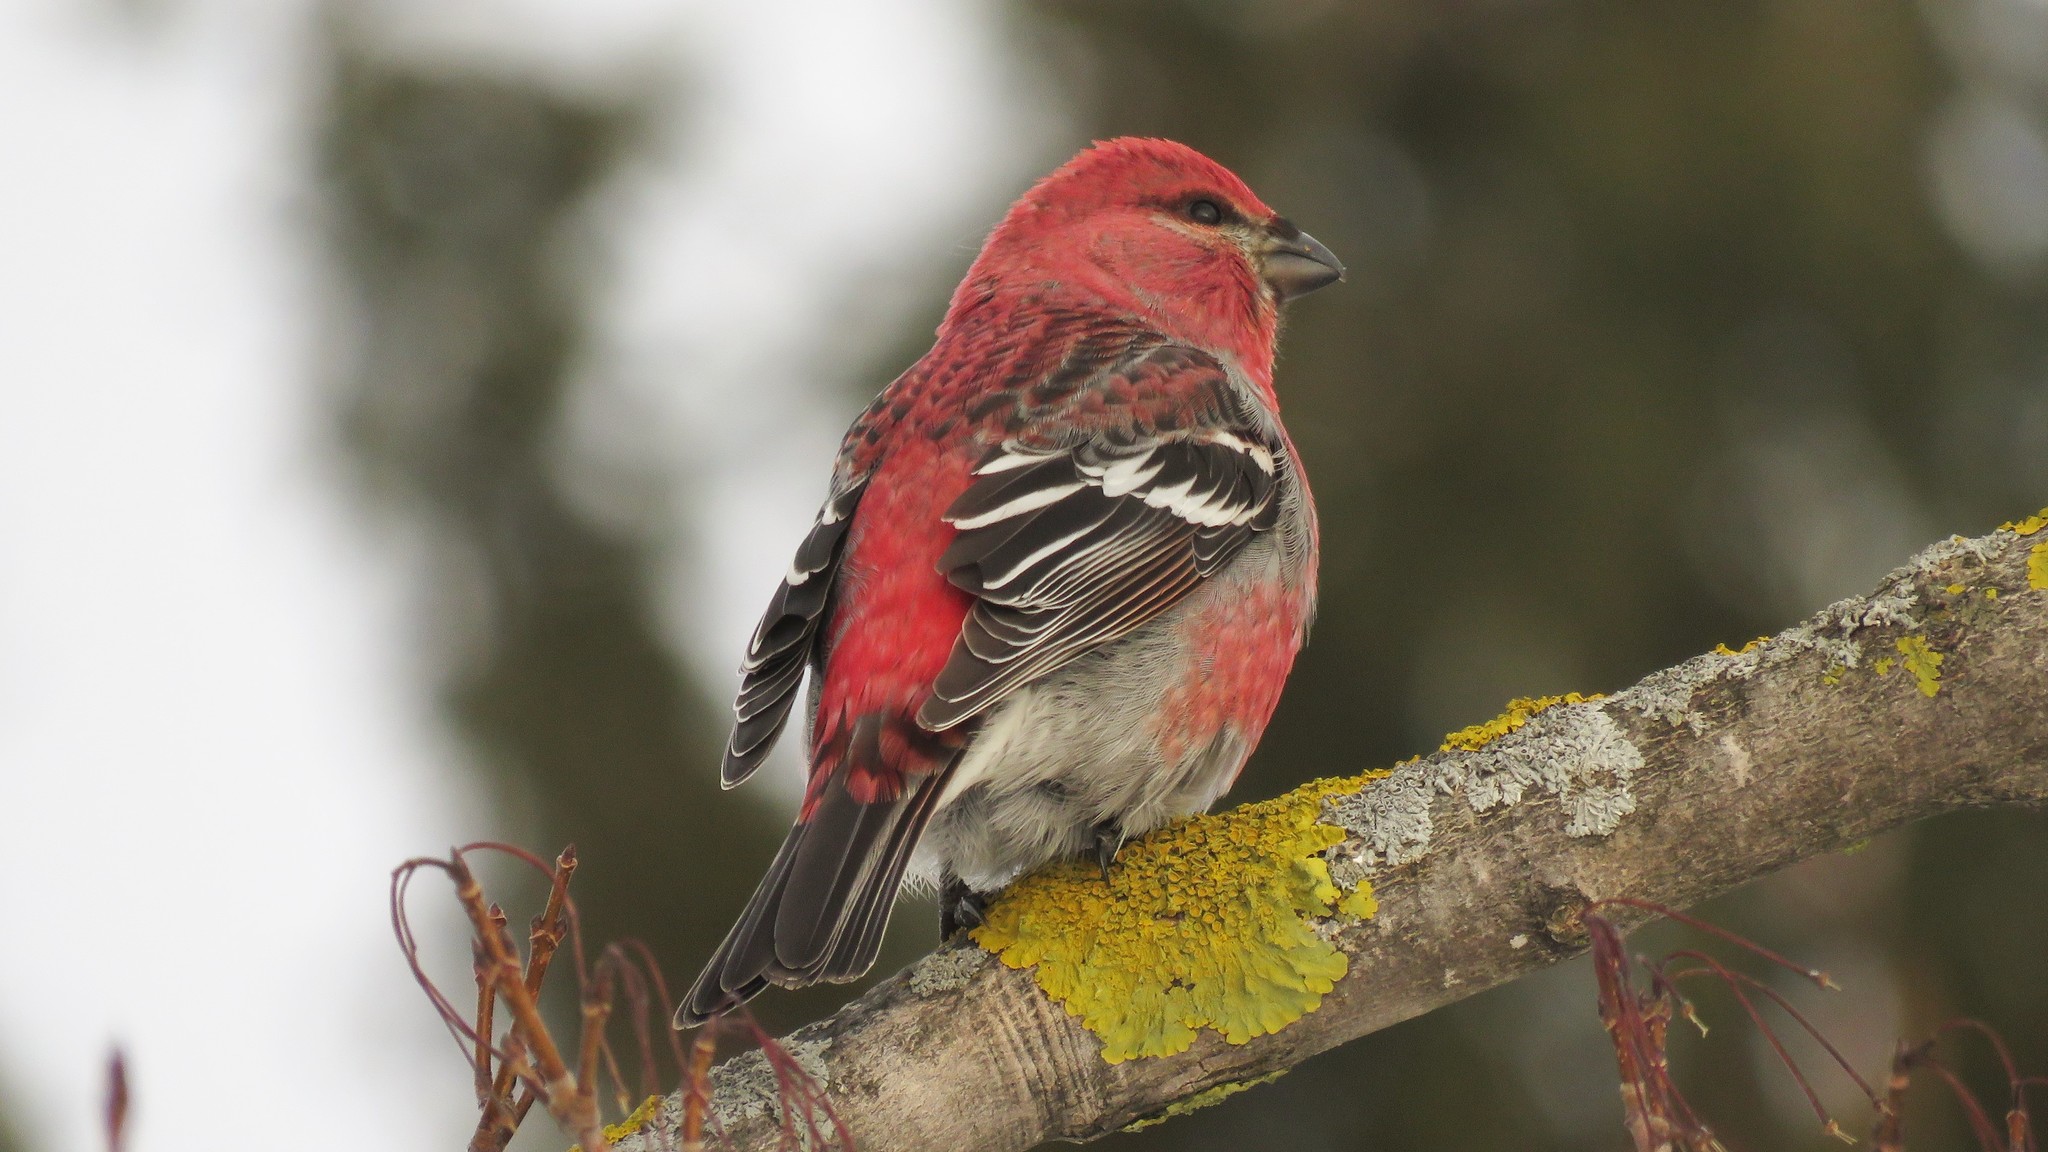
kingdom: Animalia
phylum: Chordata
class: Aves
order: Passeriformes
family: Fringillidae
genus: Pinicola
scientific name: Pinicola enucleator
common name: Pine grosbeak
